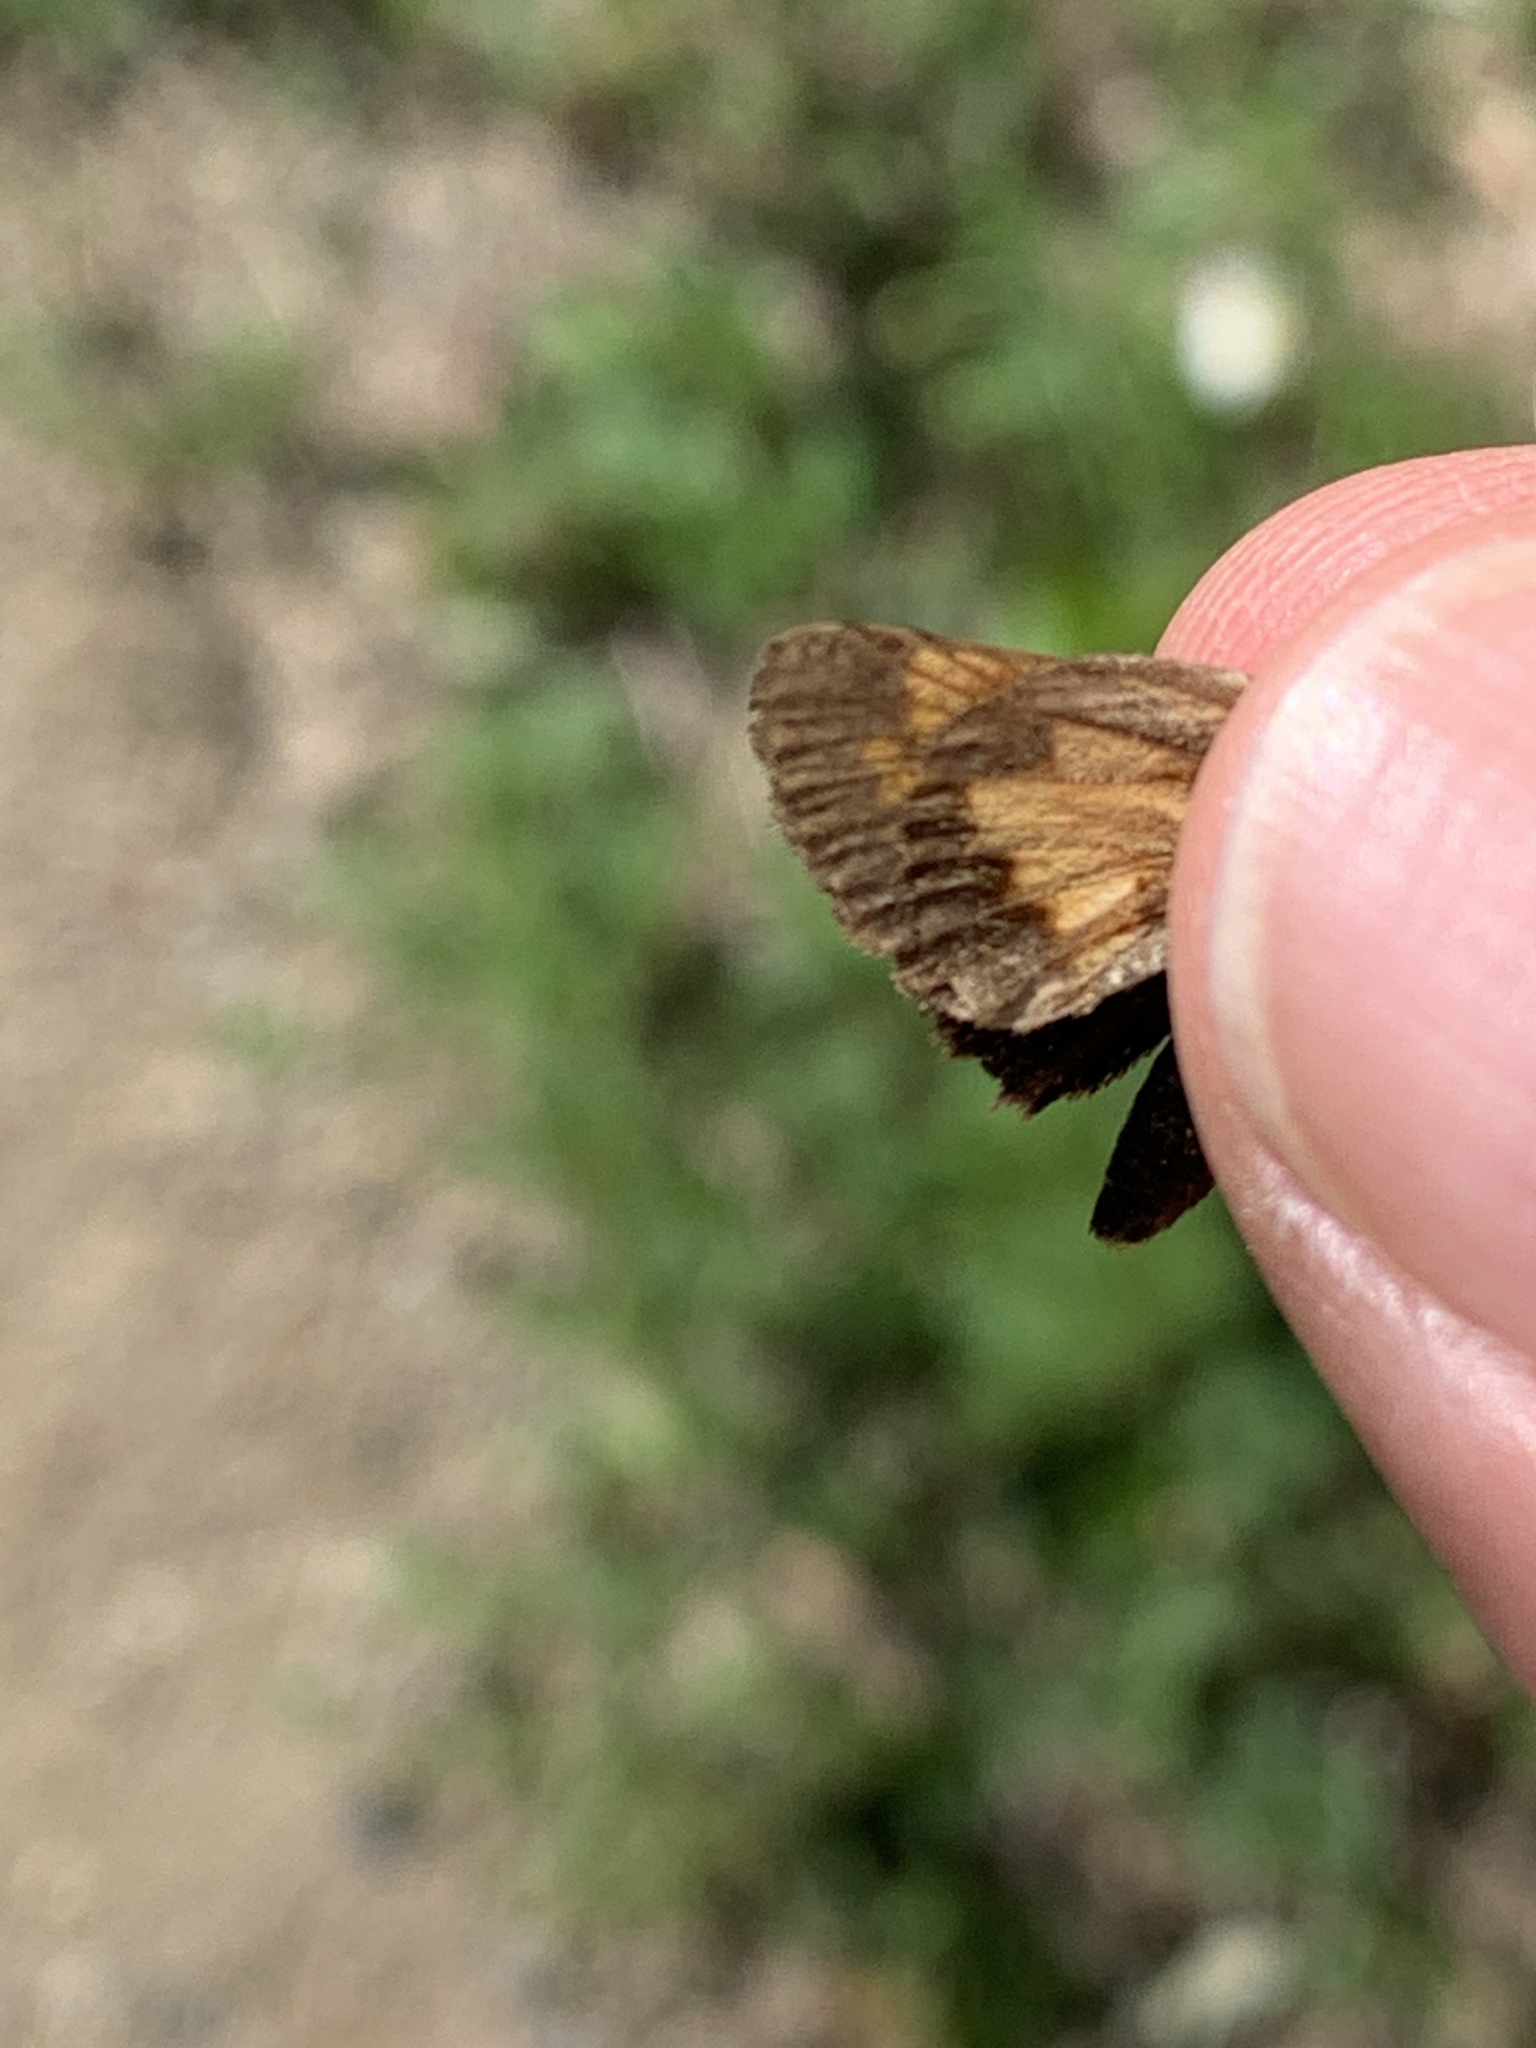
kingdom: Animalia
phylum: Arthropoda
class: Insecta
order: Lepidoptera
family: Hesperiidae
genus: Lon
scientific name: Lon hobomok
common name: Hobomok skipper
